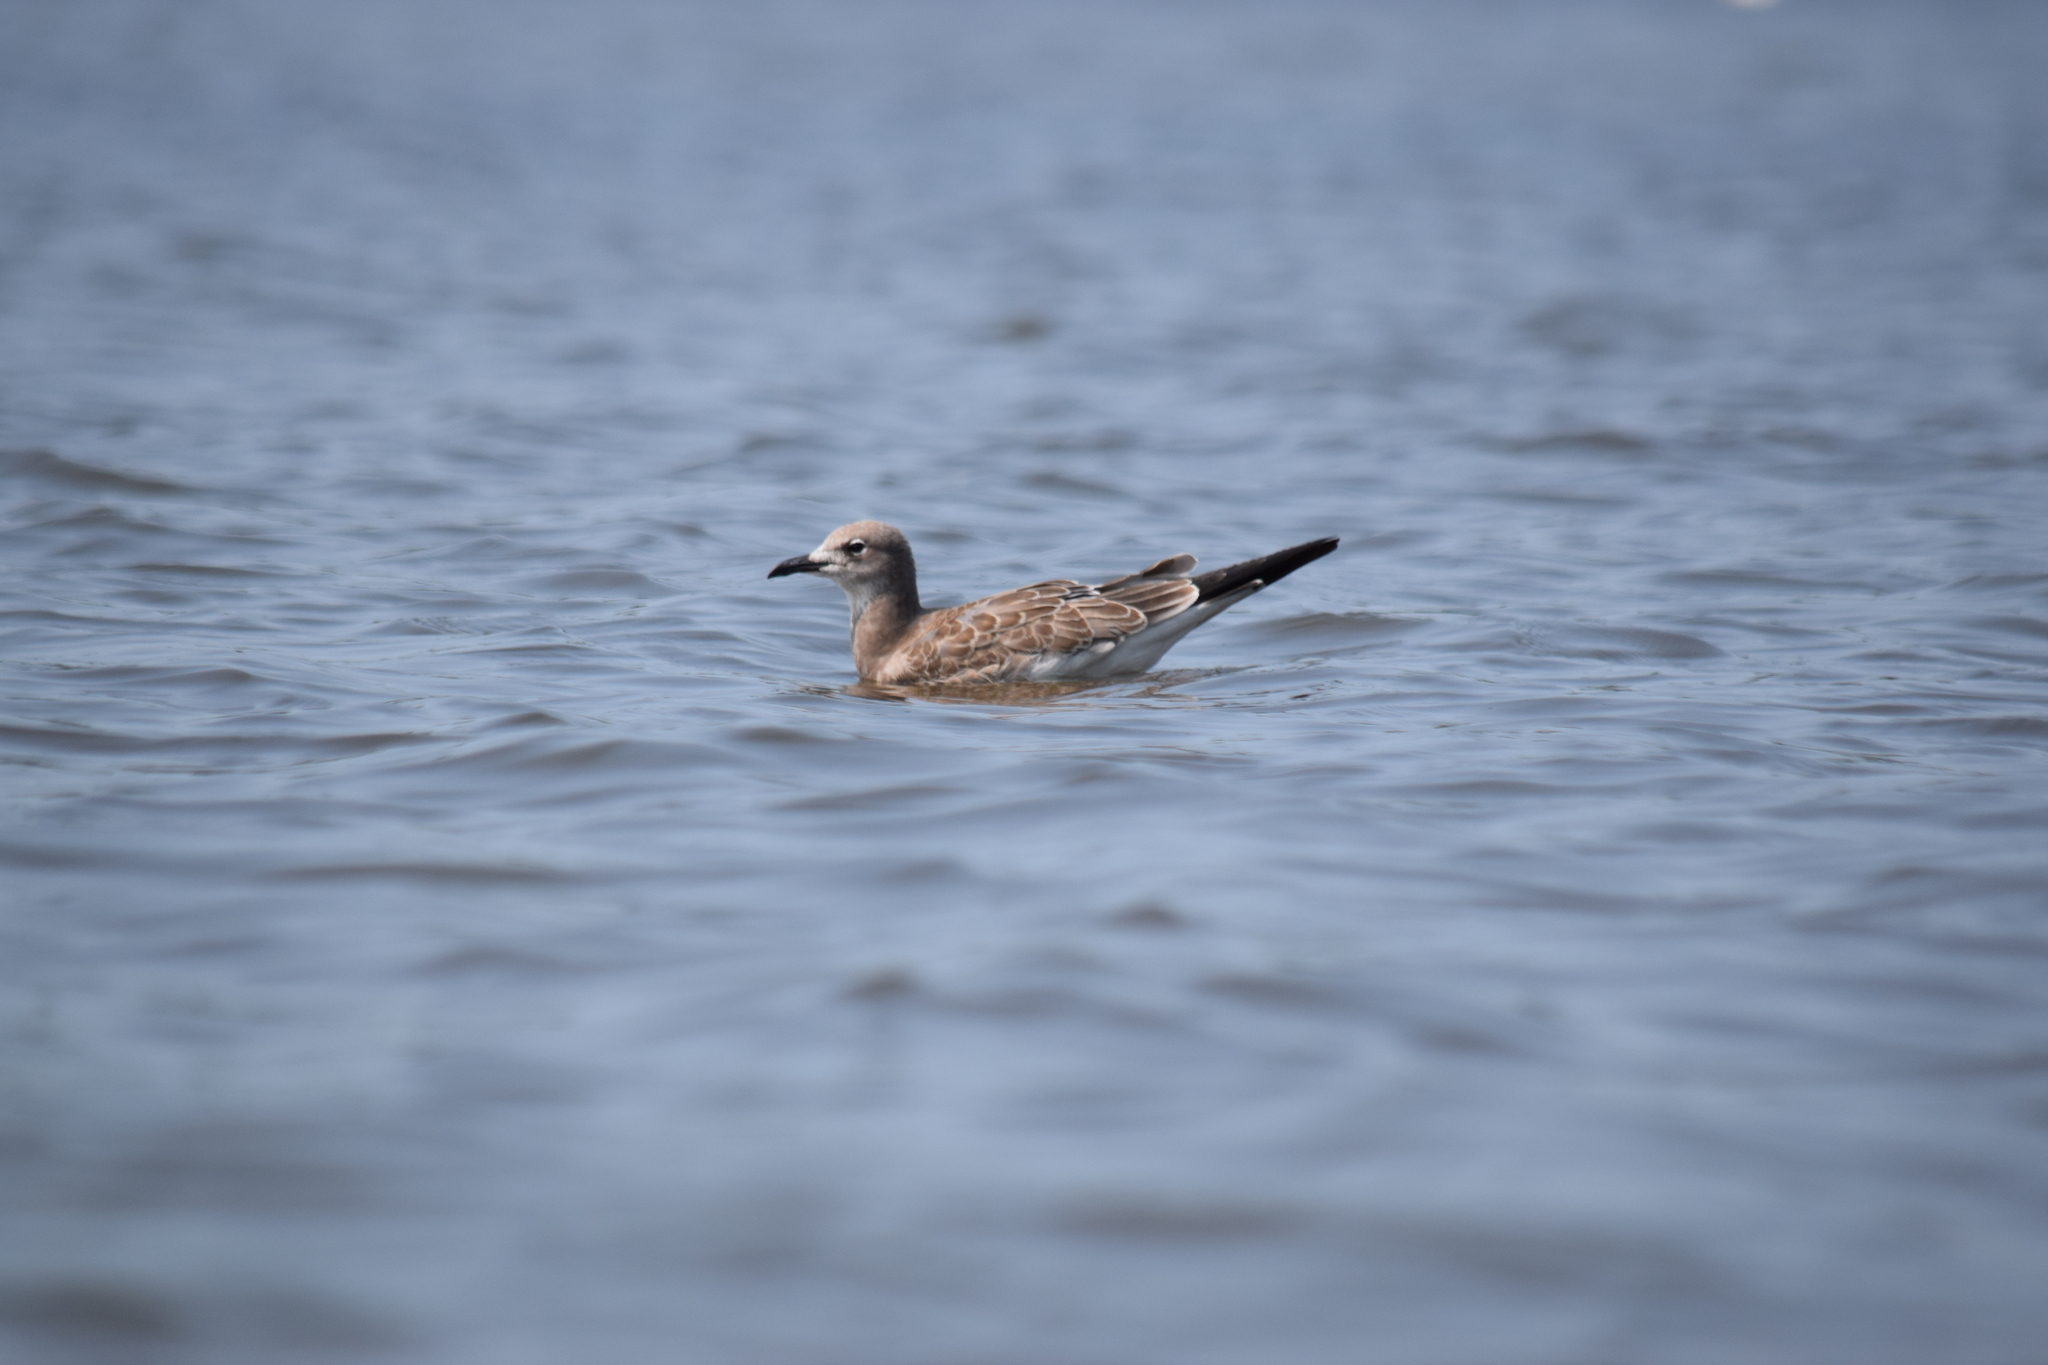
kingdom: Animalia
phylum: Chordata
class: Aves
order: Charadriiformes
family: Laridae
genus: Leucophaeus
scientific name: Leucophaeus atricilla
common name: Laughing gull
